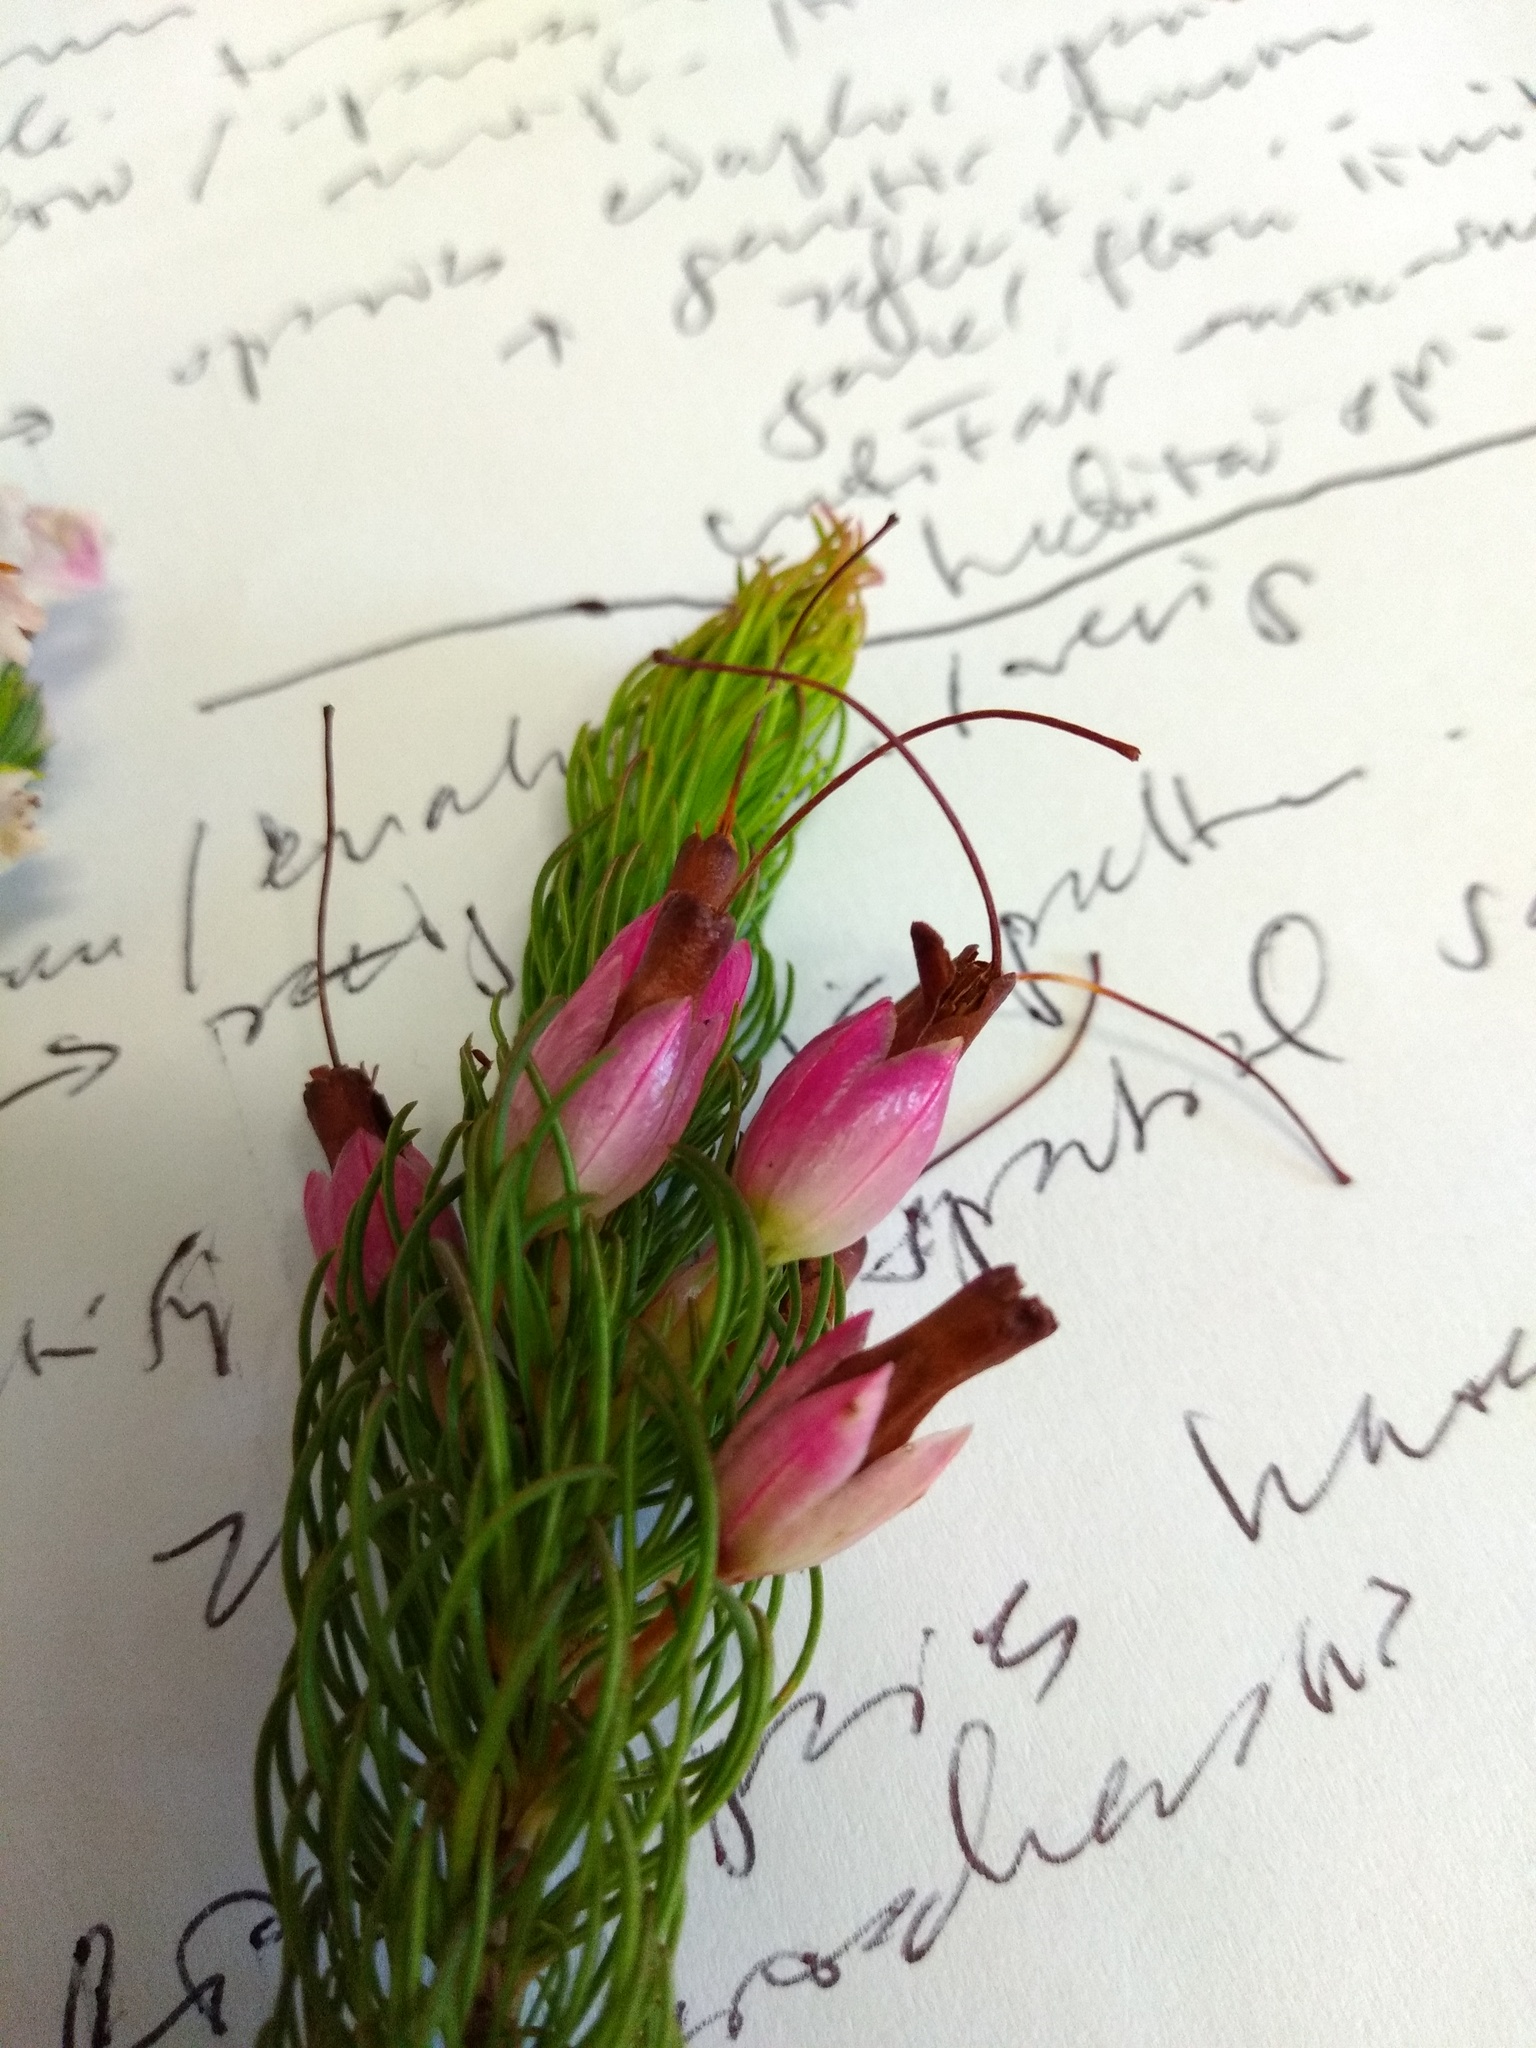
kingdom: Plantae
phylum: Tracheophyta
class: Magnoliopsida
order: Ericales
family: Ericaceae
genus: Erica
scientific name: Erica plukenetii
